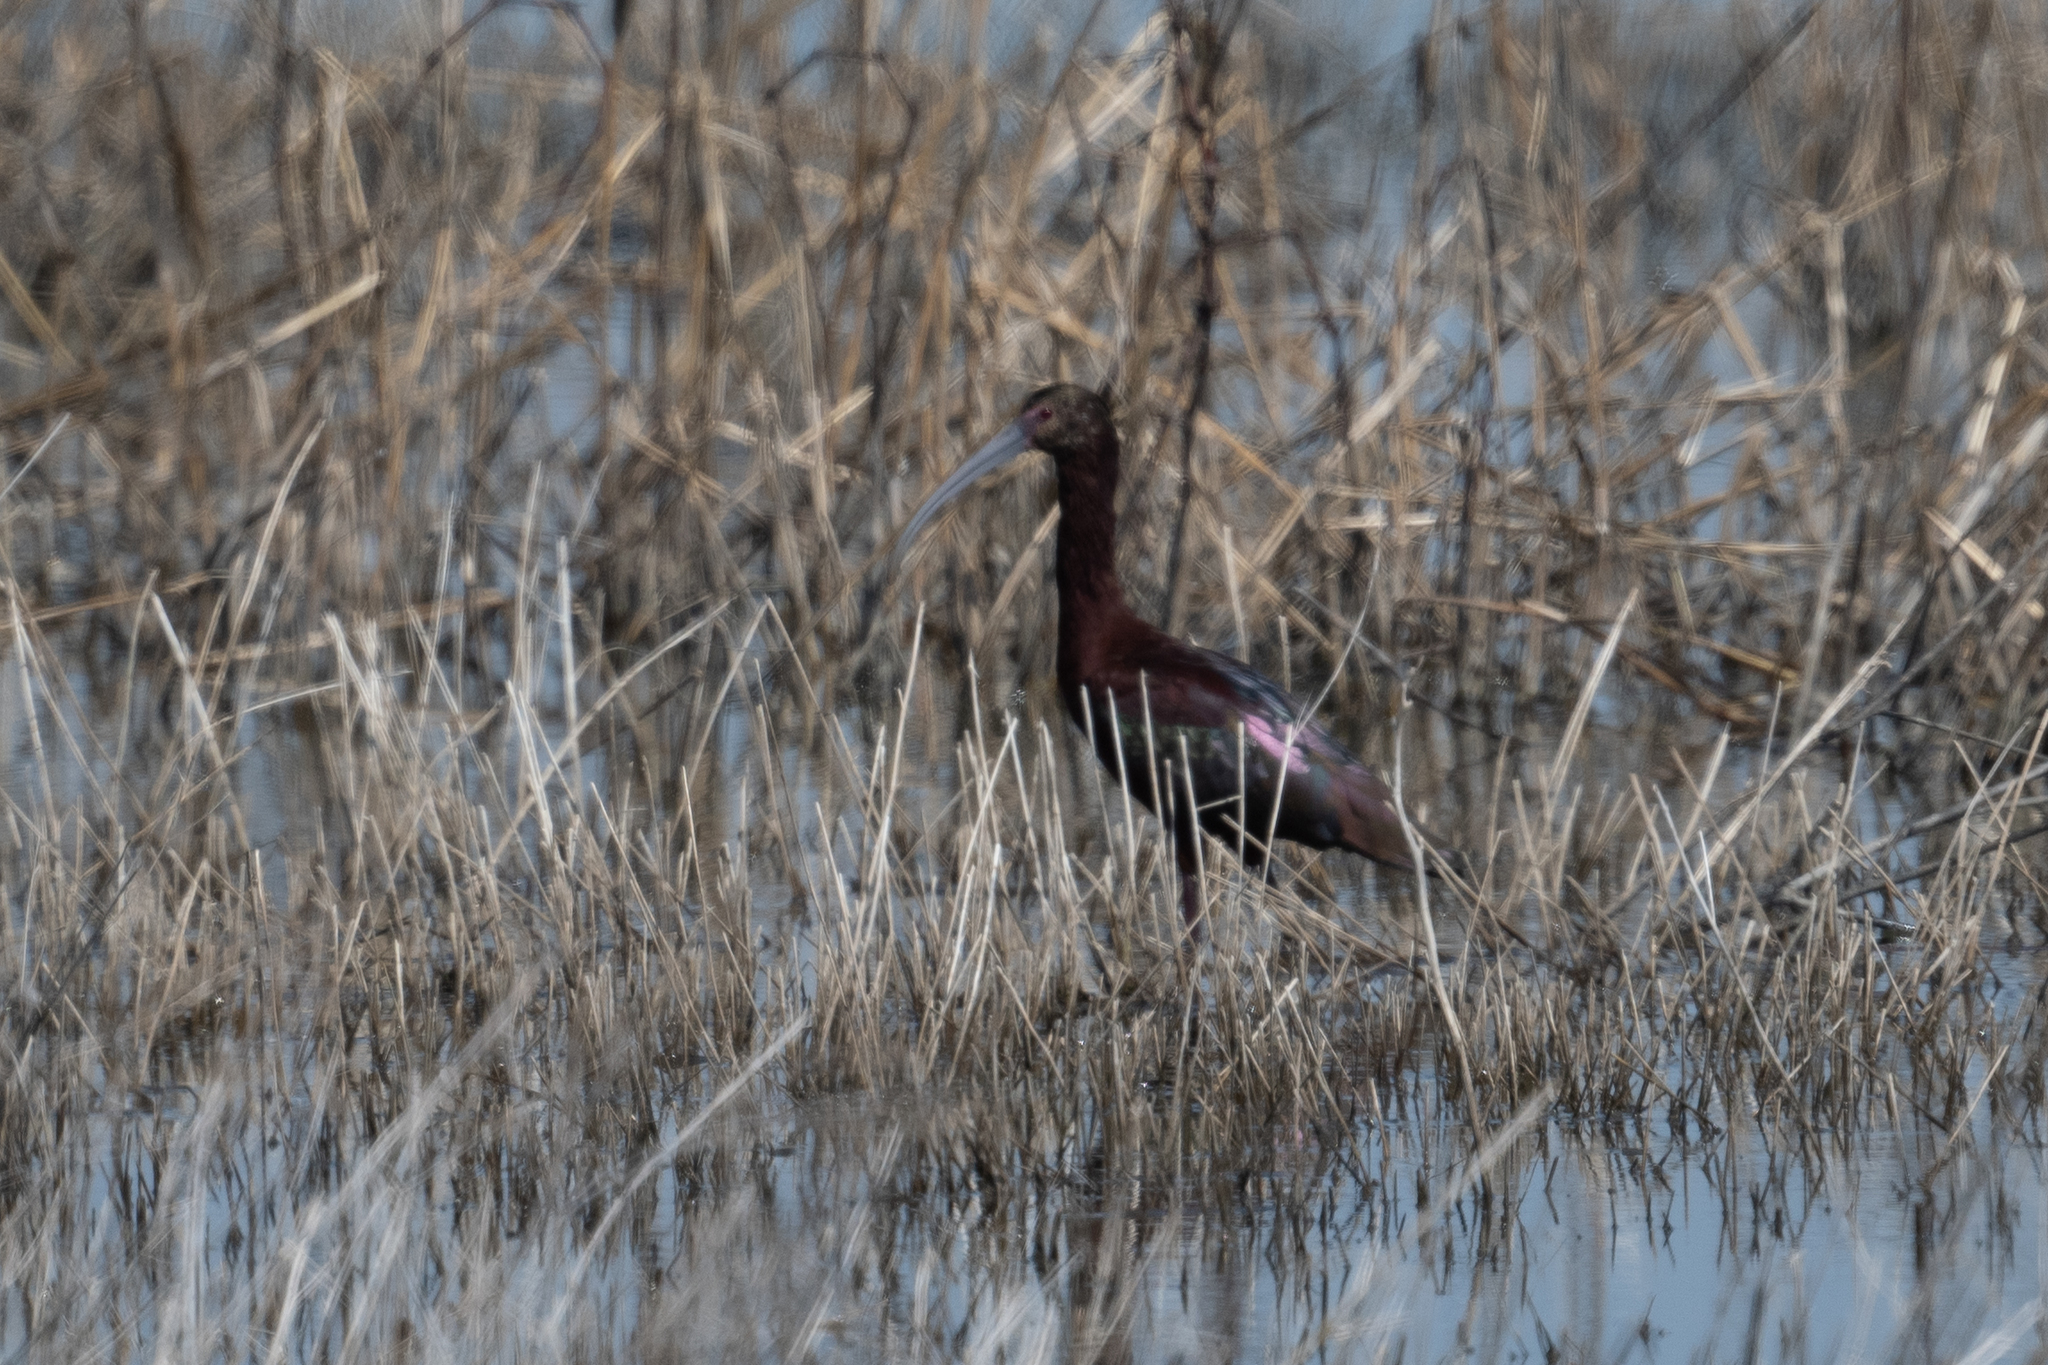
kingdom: Animalia
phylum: Chordata
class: Aves
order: Pelecaniformes
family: Threskiornithidae
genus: Plegadis
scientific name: Plegadis chihi
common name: White-faced ibis
